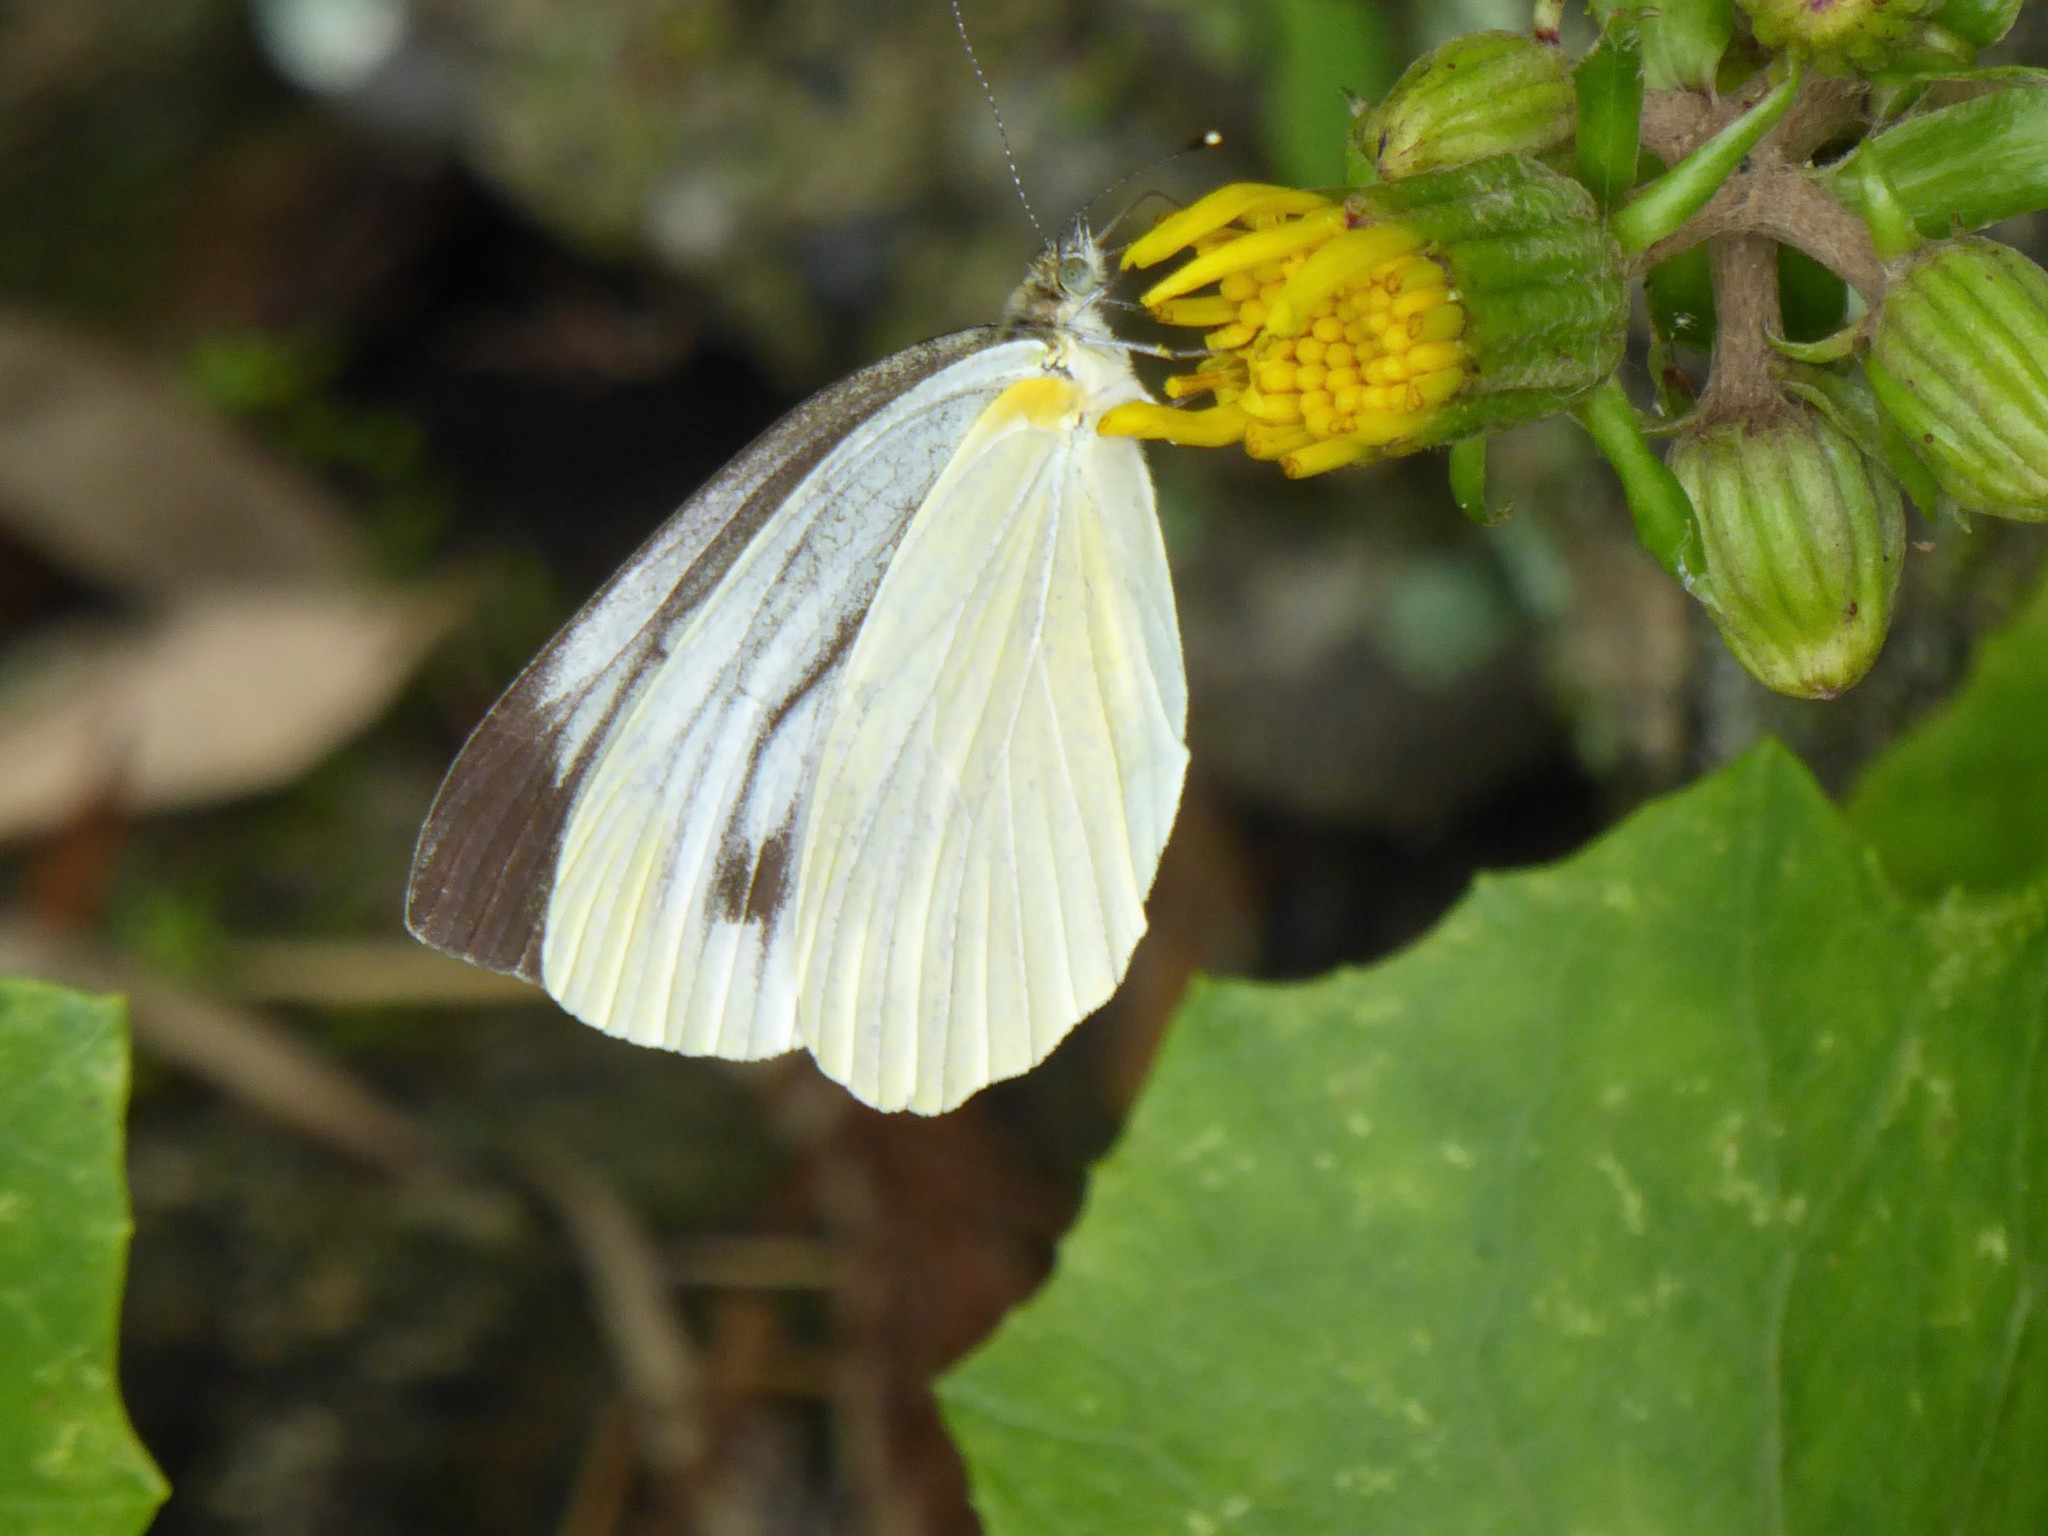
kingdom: Animalia
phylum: Arthropoda
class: Insecta
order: Lepidoptera
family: Pieridae
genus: Pieris
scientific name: Pieris melete
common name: Asian green-veined white
